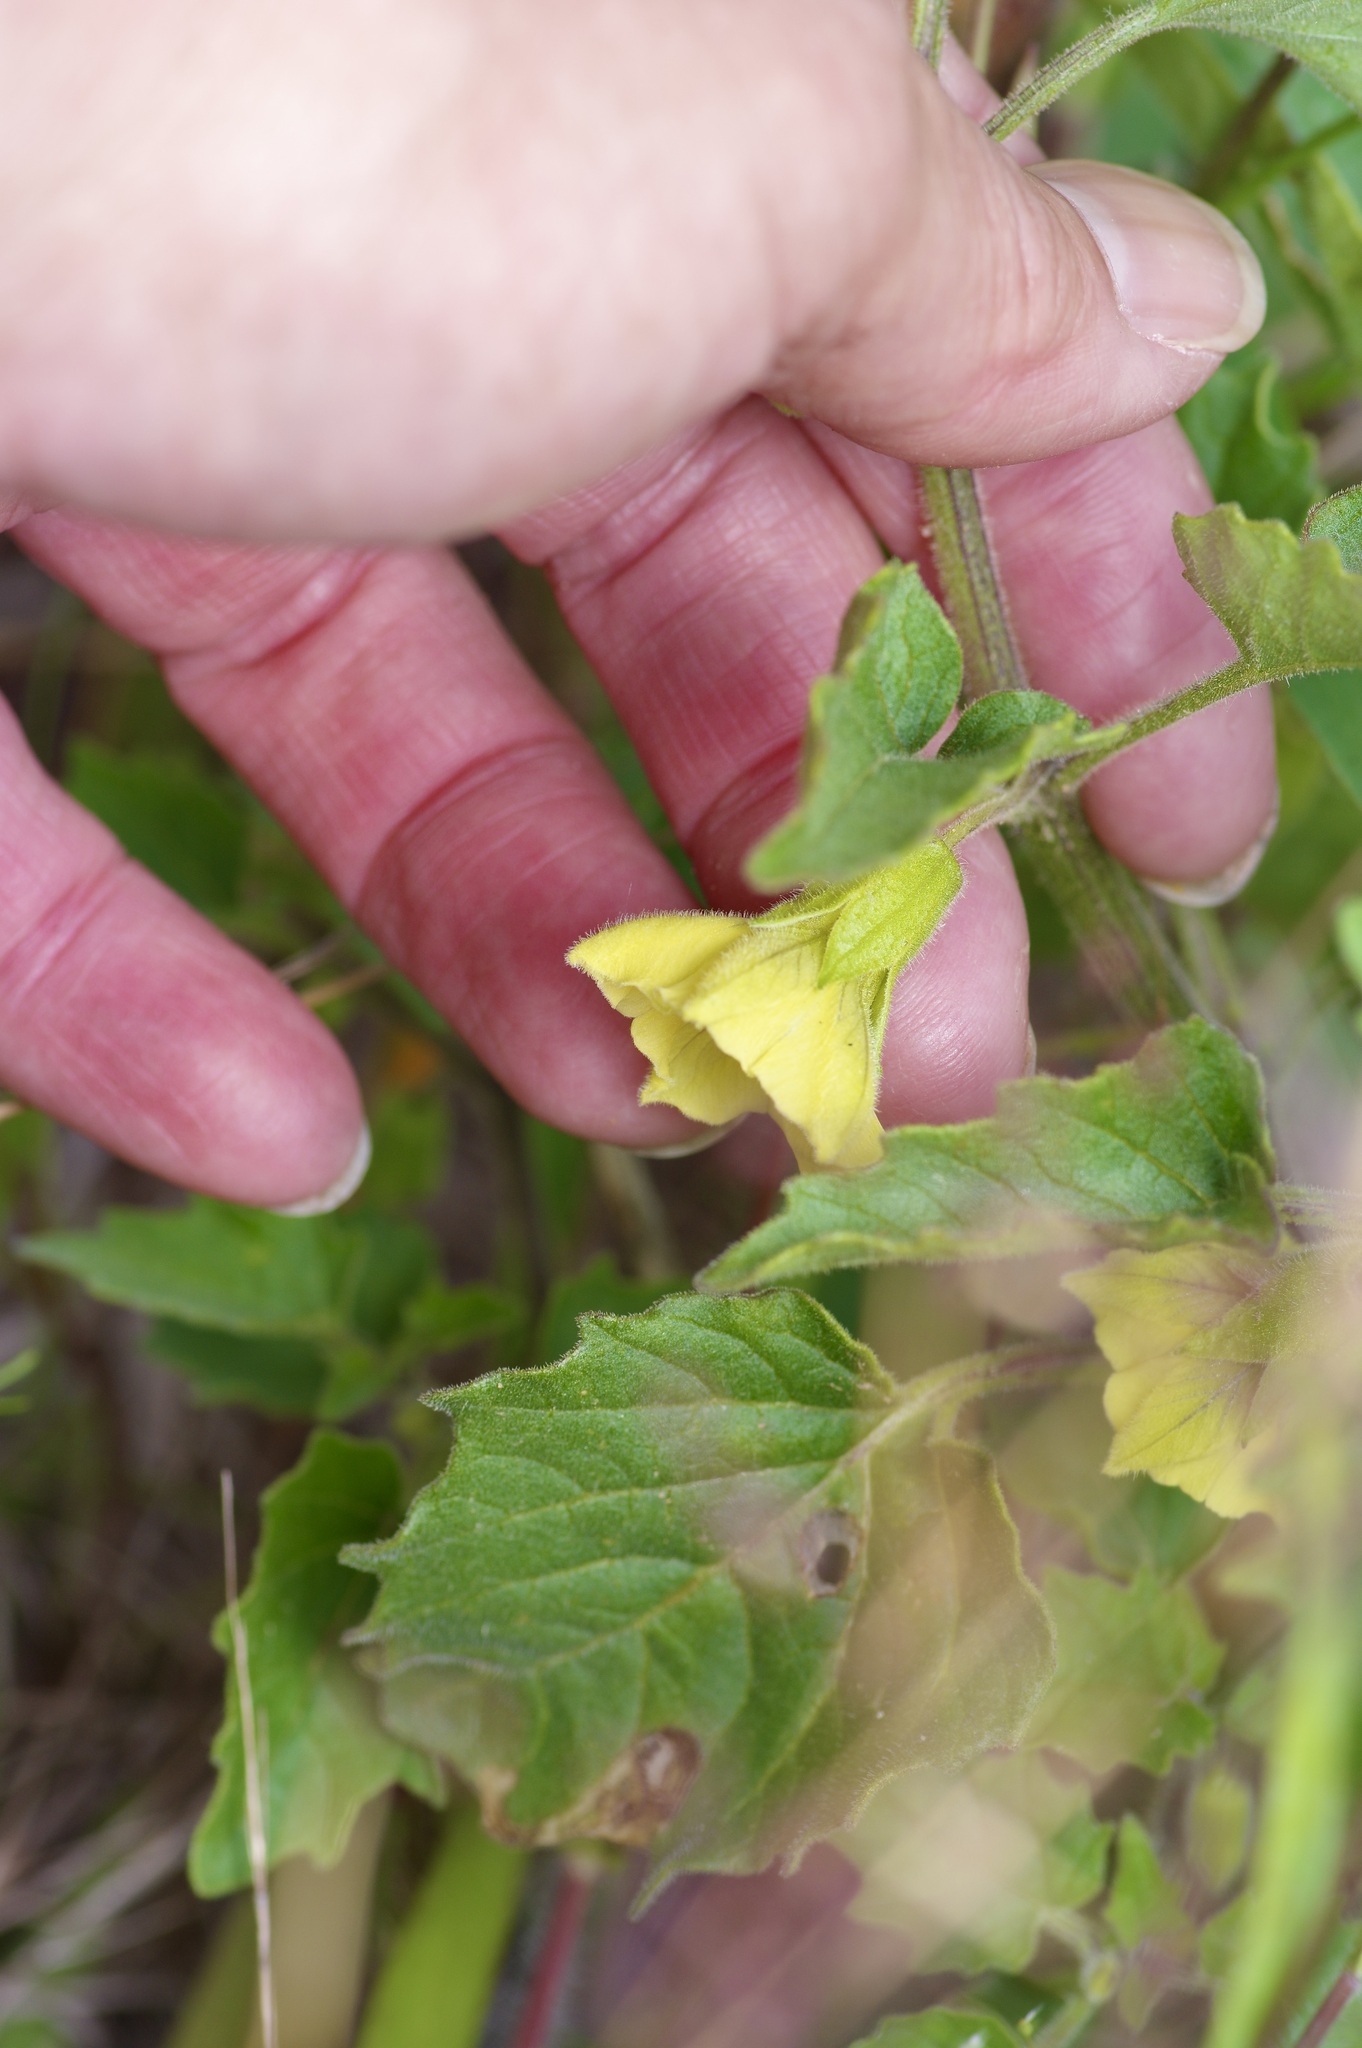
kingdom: Plantae
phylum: Tracheophyta
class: Magnoliopsida
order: Solanales
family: Solanaceae
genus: Physalis
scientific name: Physalis heterophylla
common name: Clammy ground-cherry
